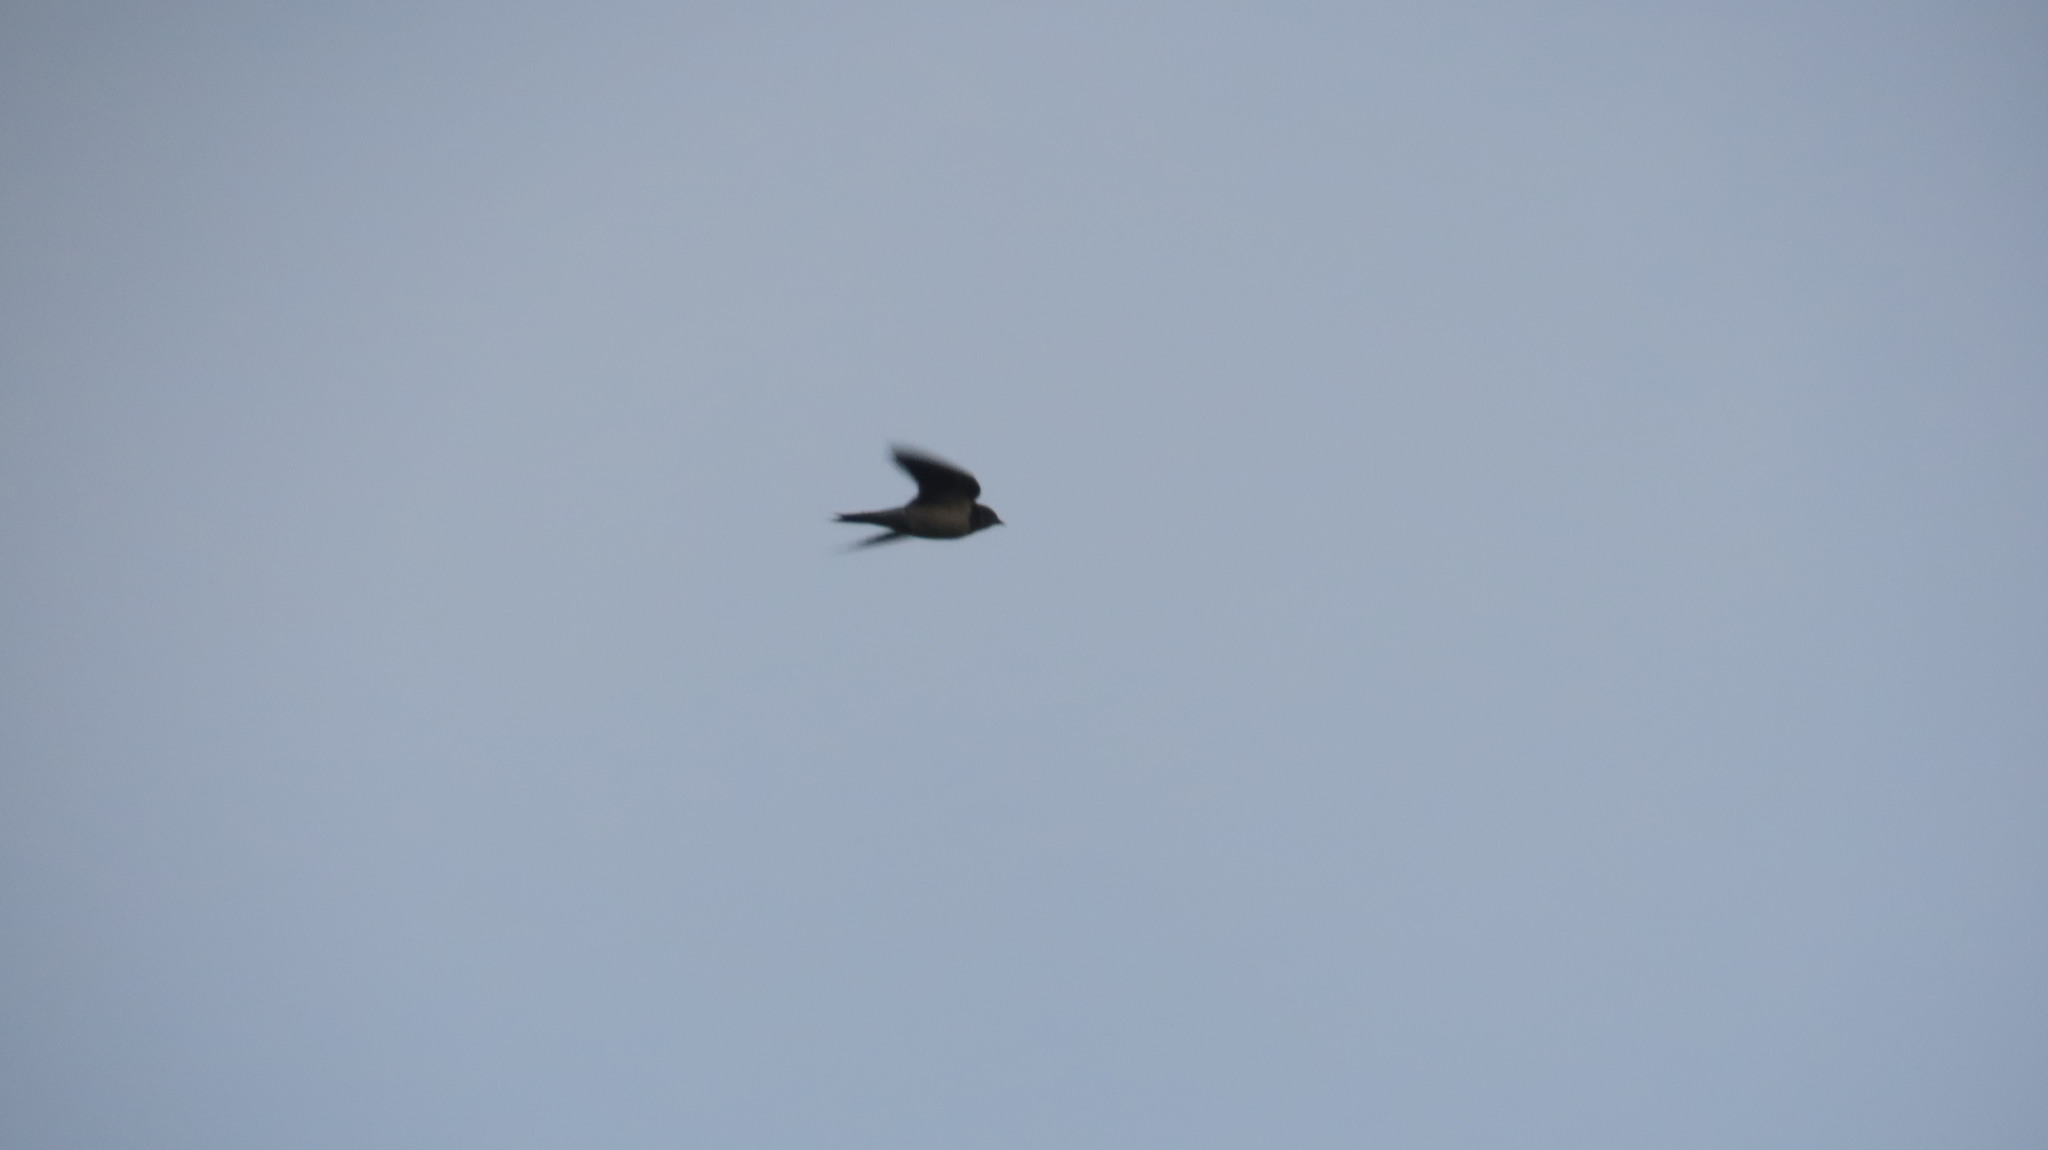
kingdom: Animalia
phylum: Chordata
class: Aves
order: Passeriformes
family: Hirundinidae
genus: Hirundo
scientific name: Hirundo rustica
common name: Barn swallow
